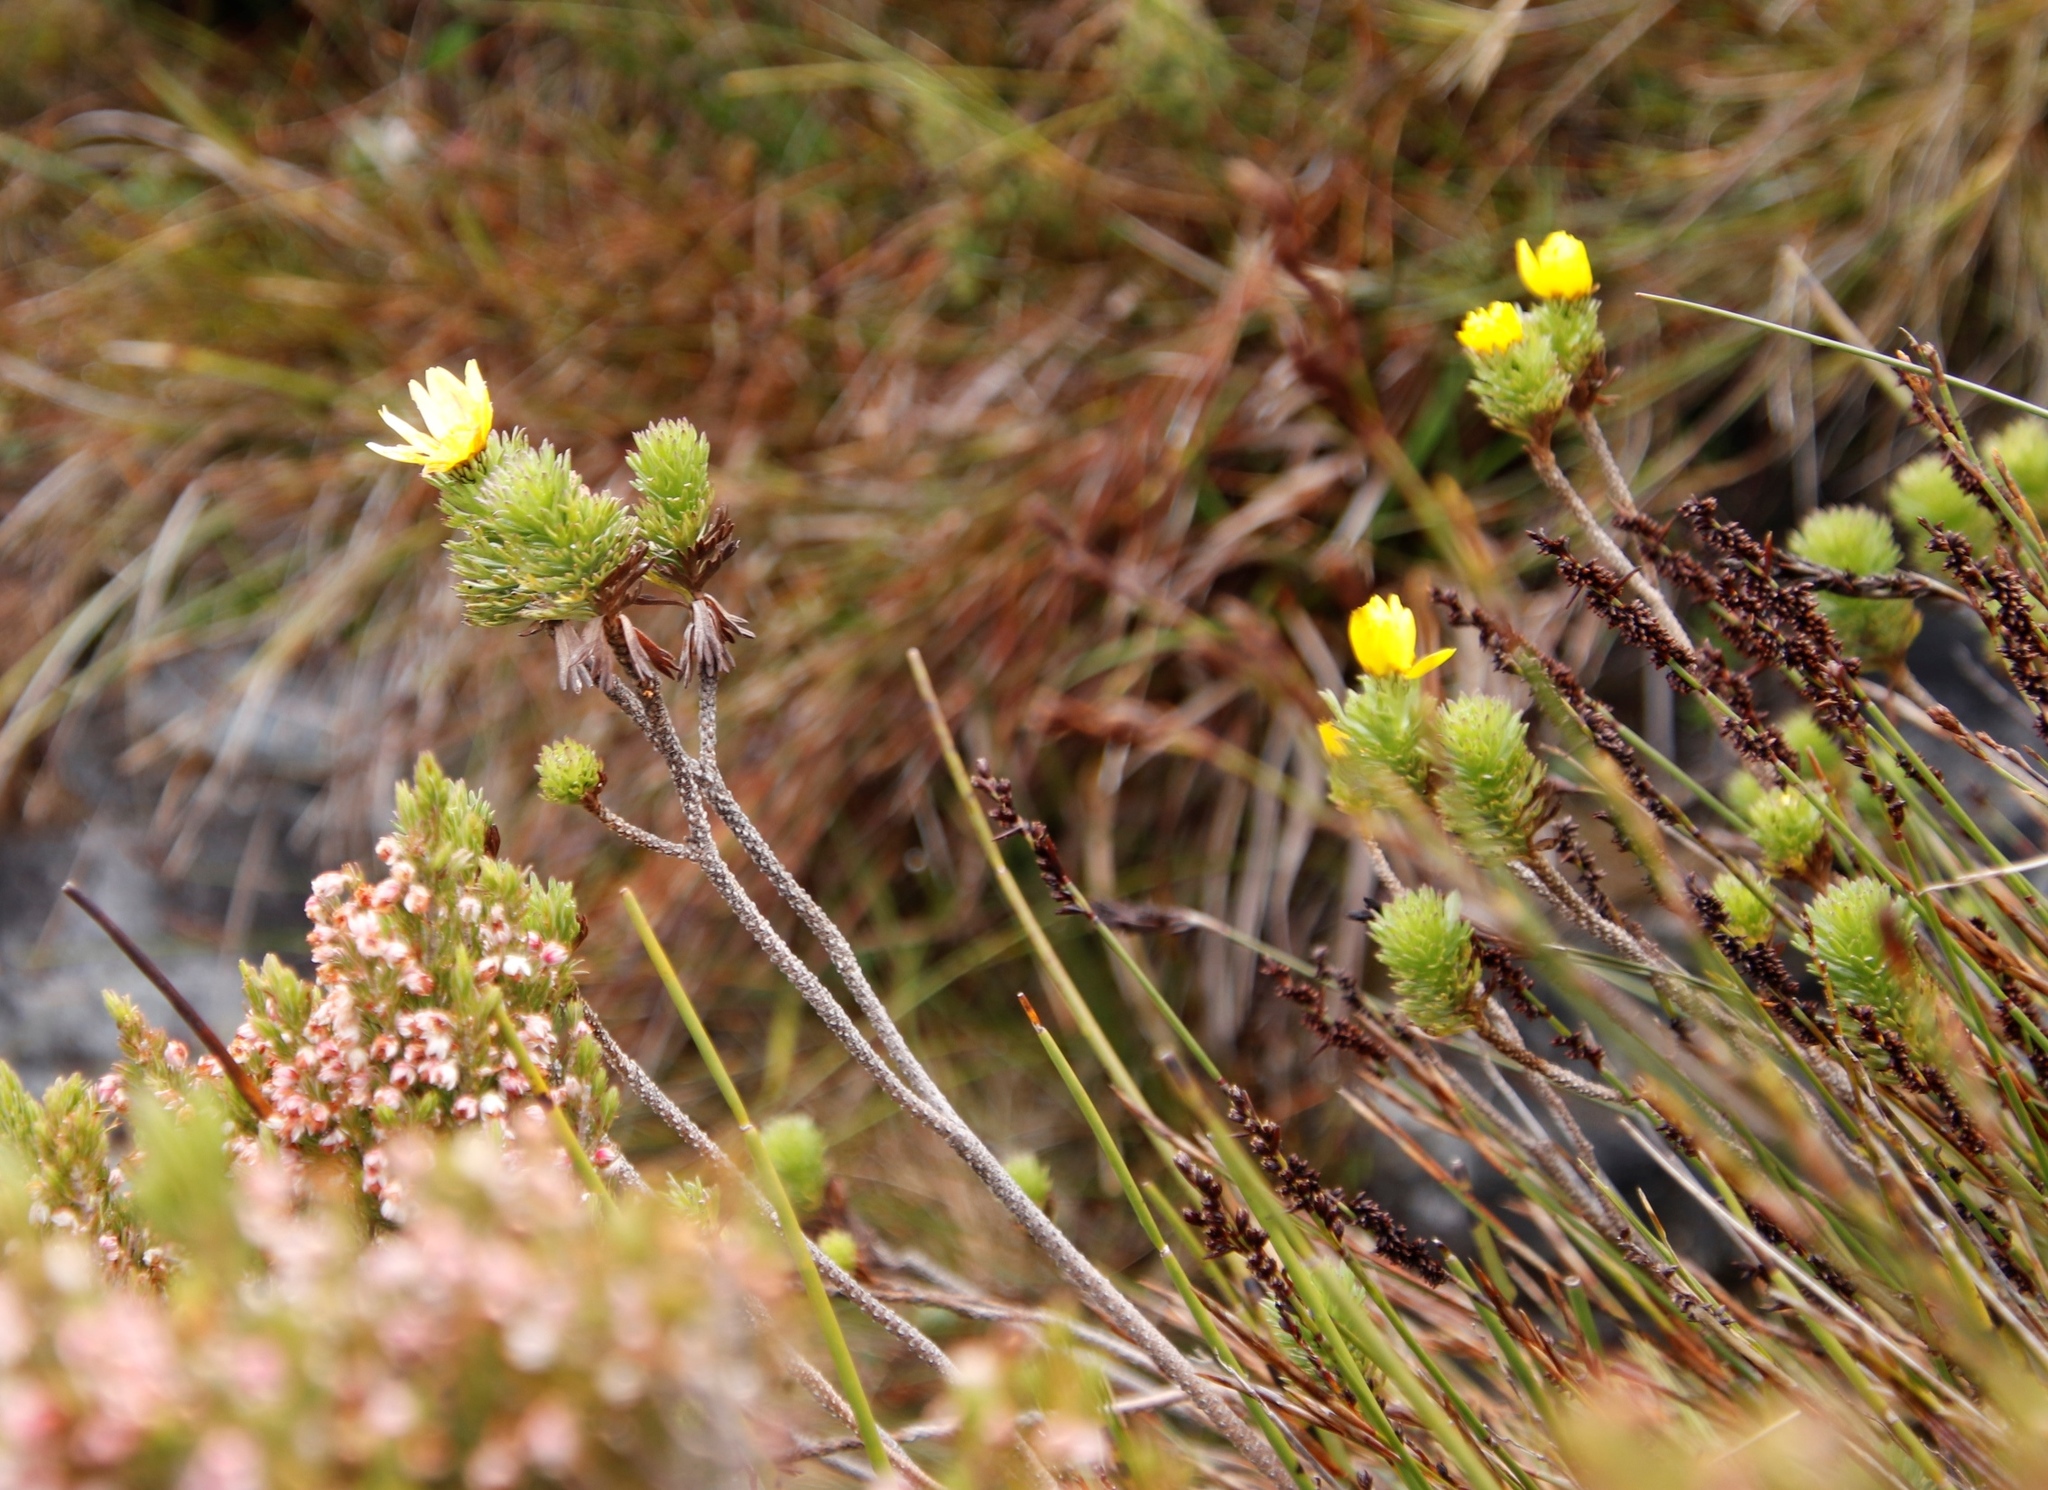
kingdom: Plantae
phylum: Tracheophyta
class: Magnoliopsida
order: Asterales
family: Asteraceae
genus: Ursinia
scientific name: Ursinia caledonica
